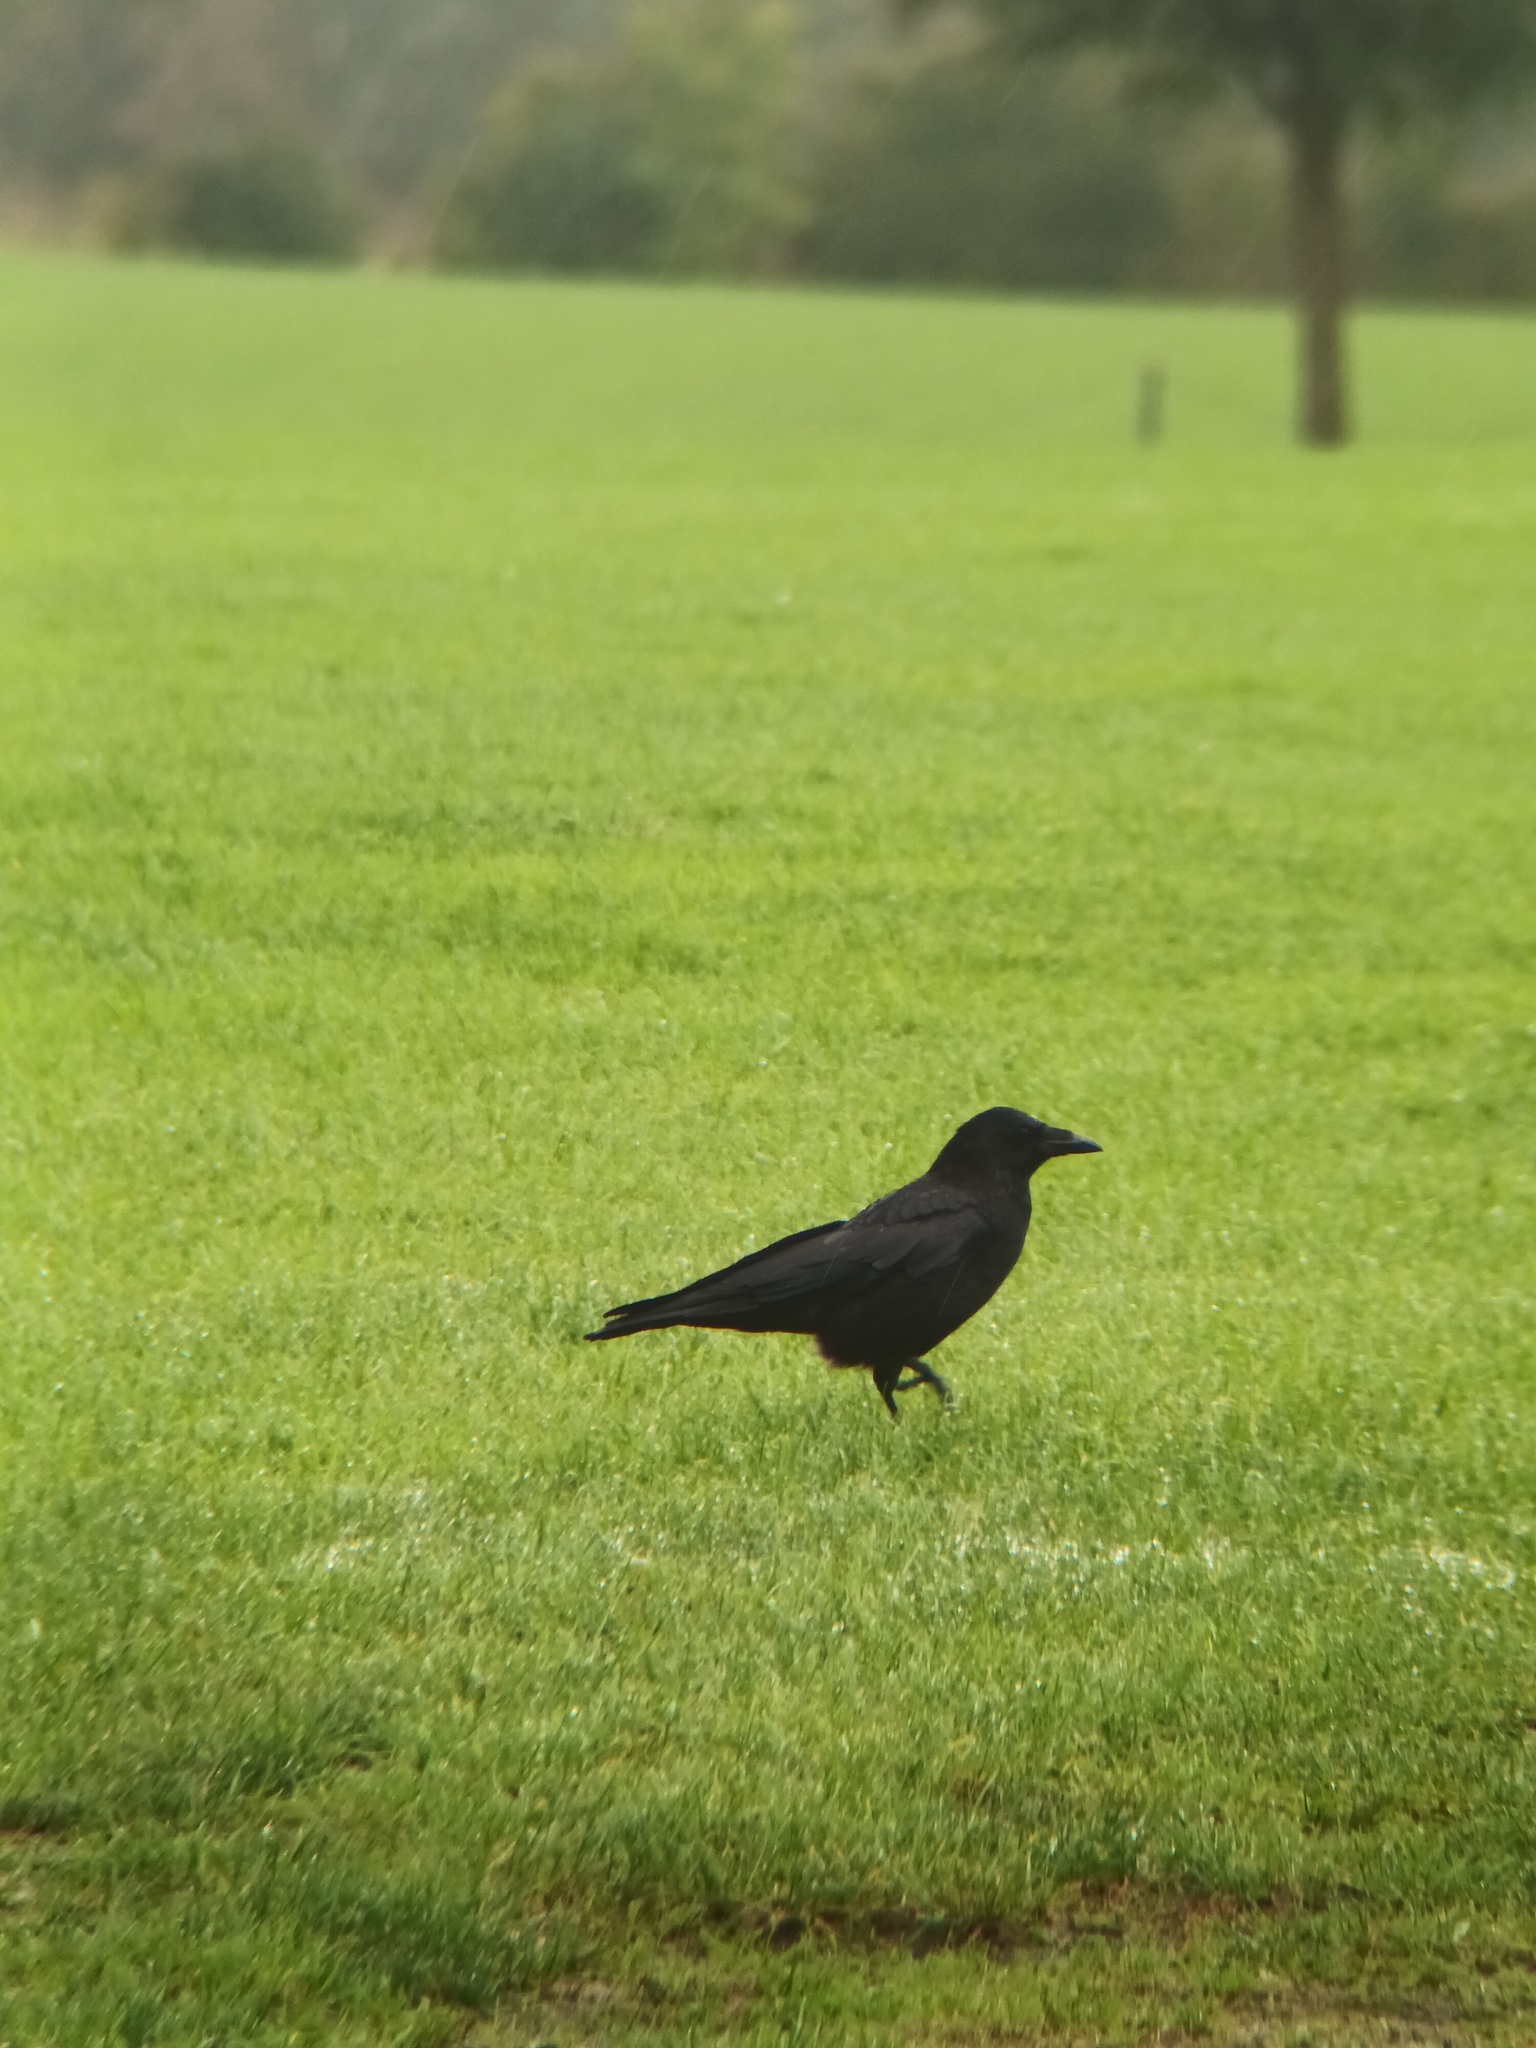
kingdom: Animalia
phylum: Chordata
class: Aves
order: Passeriformes
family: Corvidae
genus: Corvus
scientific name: Corvus corone
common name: Carrion crow
